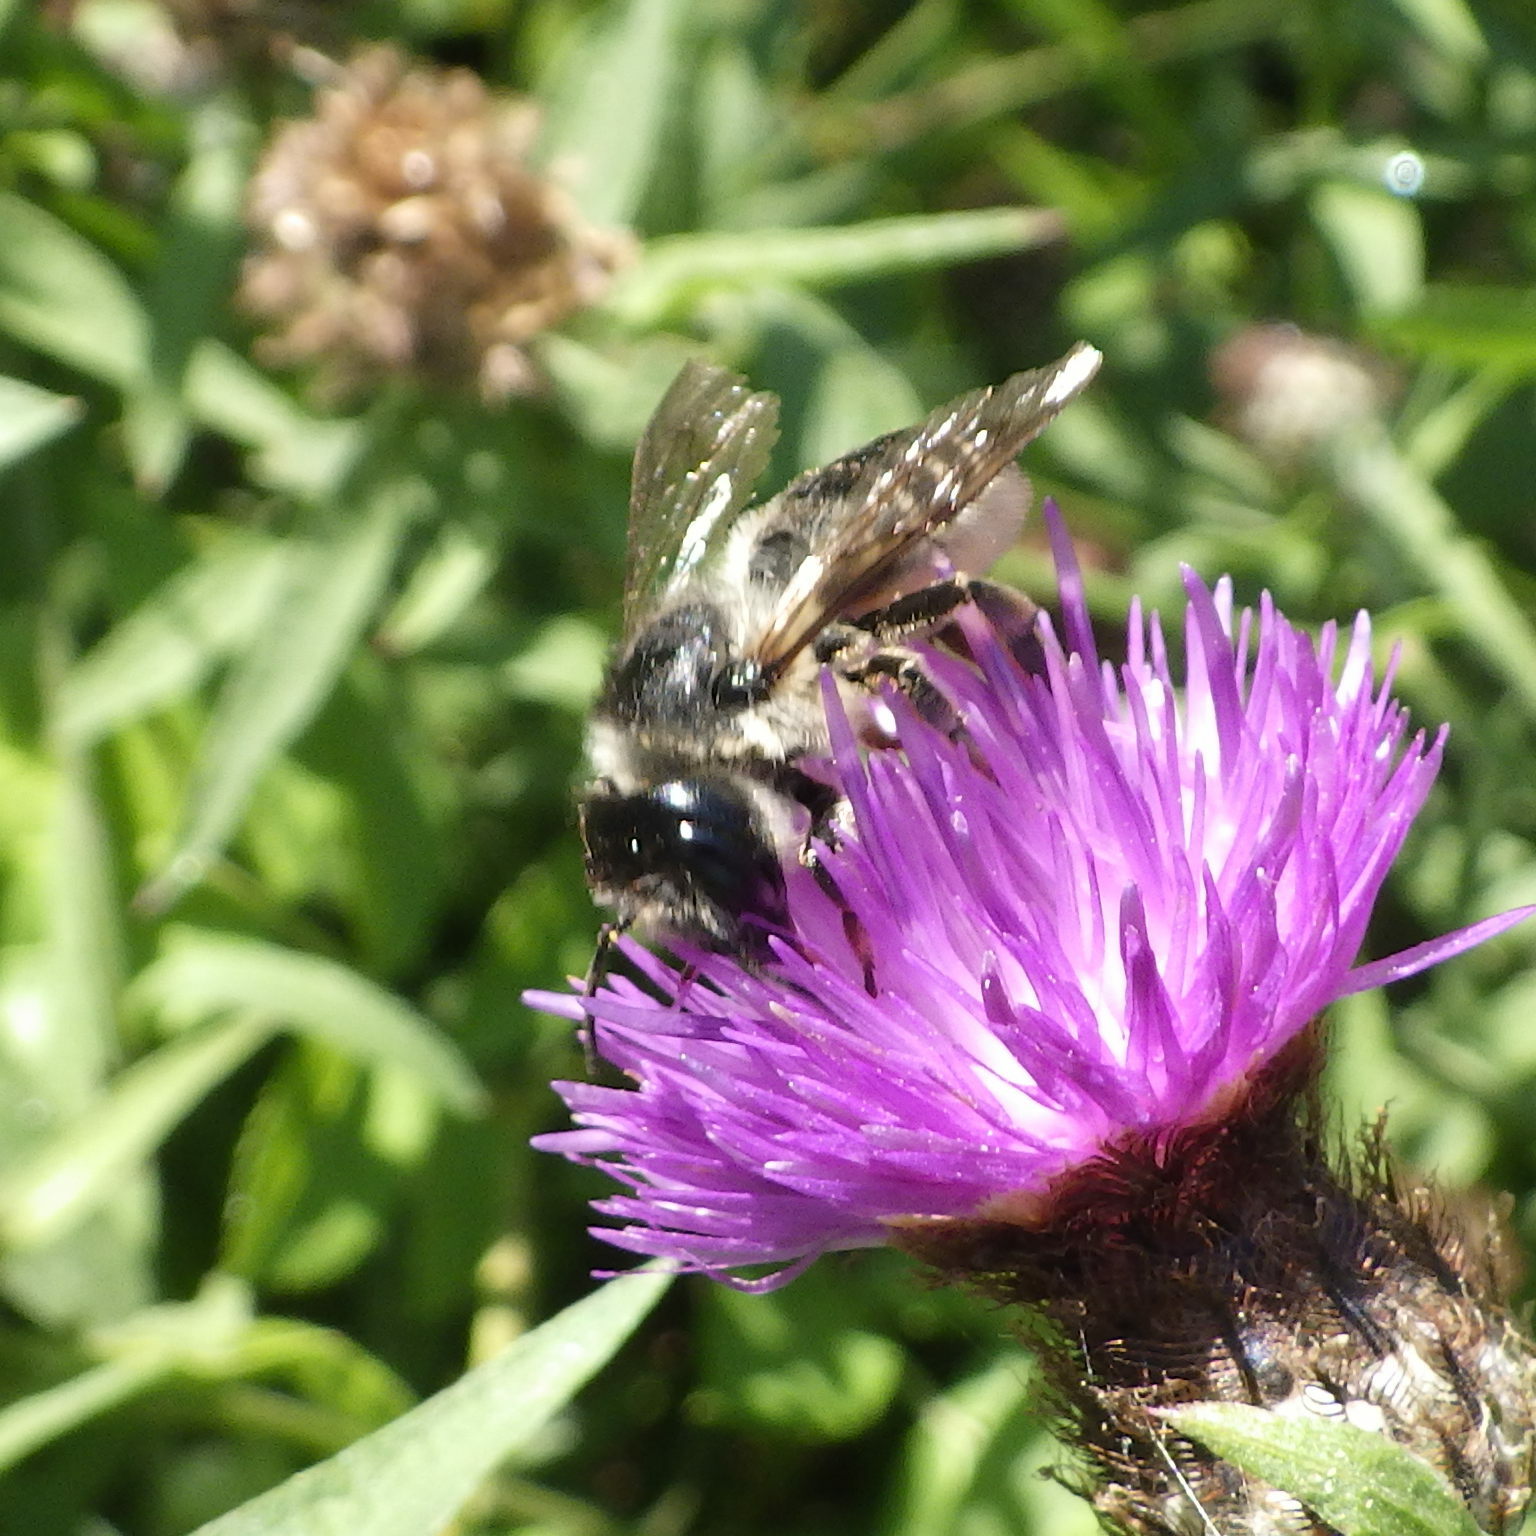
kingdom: Animalia
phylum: Arthropoda
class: Insecta
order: Hymenoptera
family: Megachilidae
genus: Megachile
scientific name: Megachile inermis
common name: Unarmed leafcutter bee
